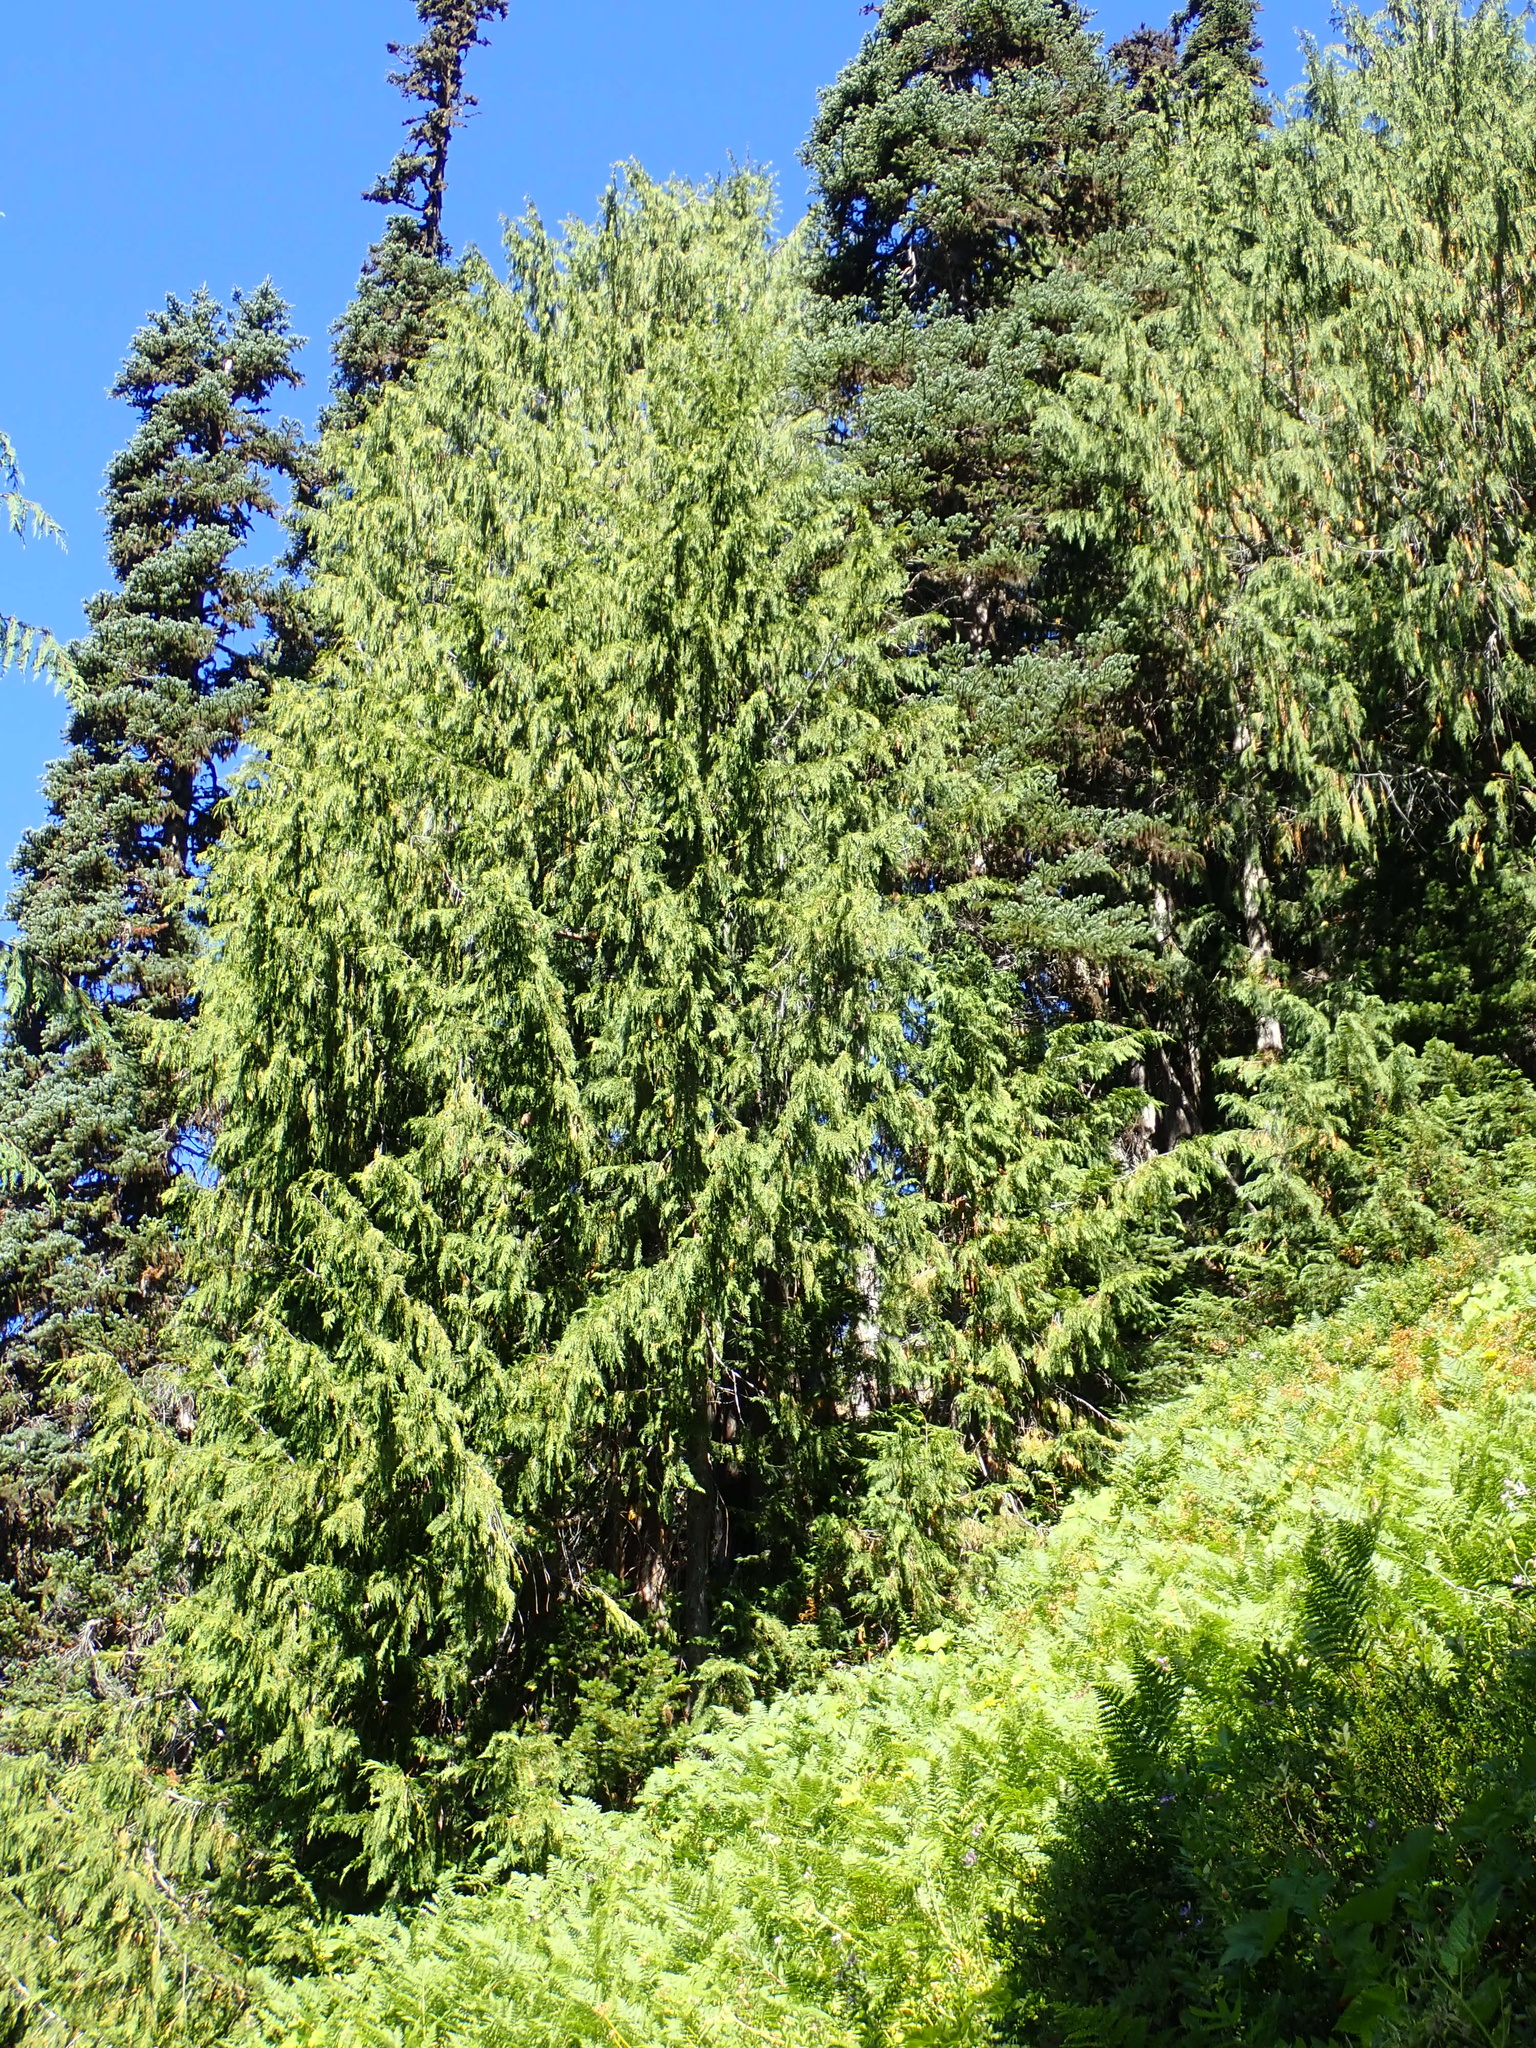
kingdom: Plantae
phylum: Tracheophyta
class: Pinopsida
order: Pinales
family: Cupressaceae
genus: Xanthocyparis
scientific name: Xanthocyparis nootkatensis
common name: Nootka cypress
